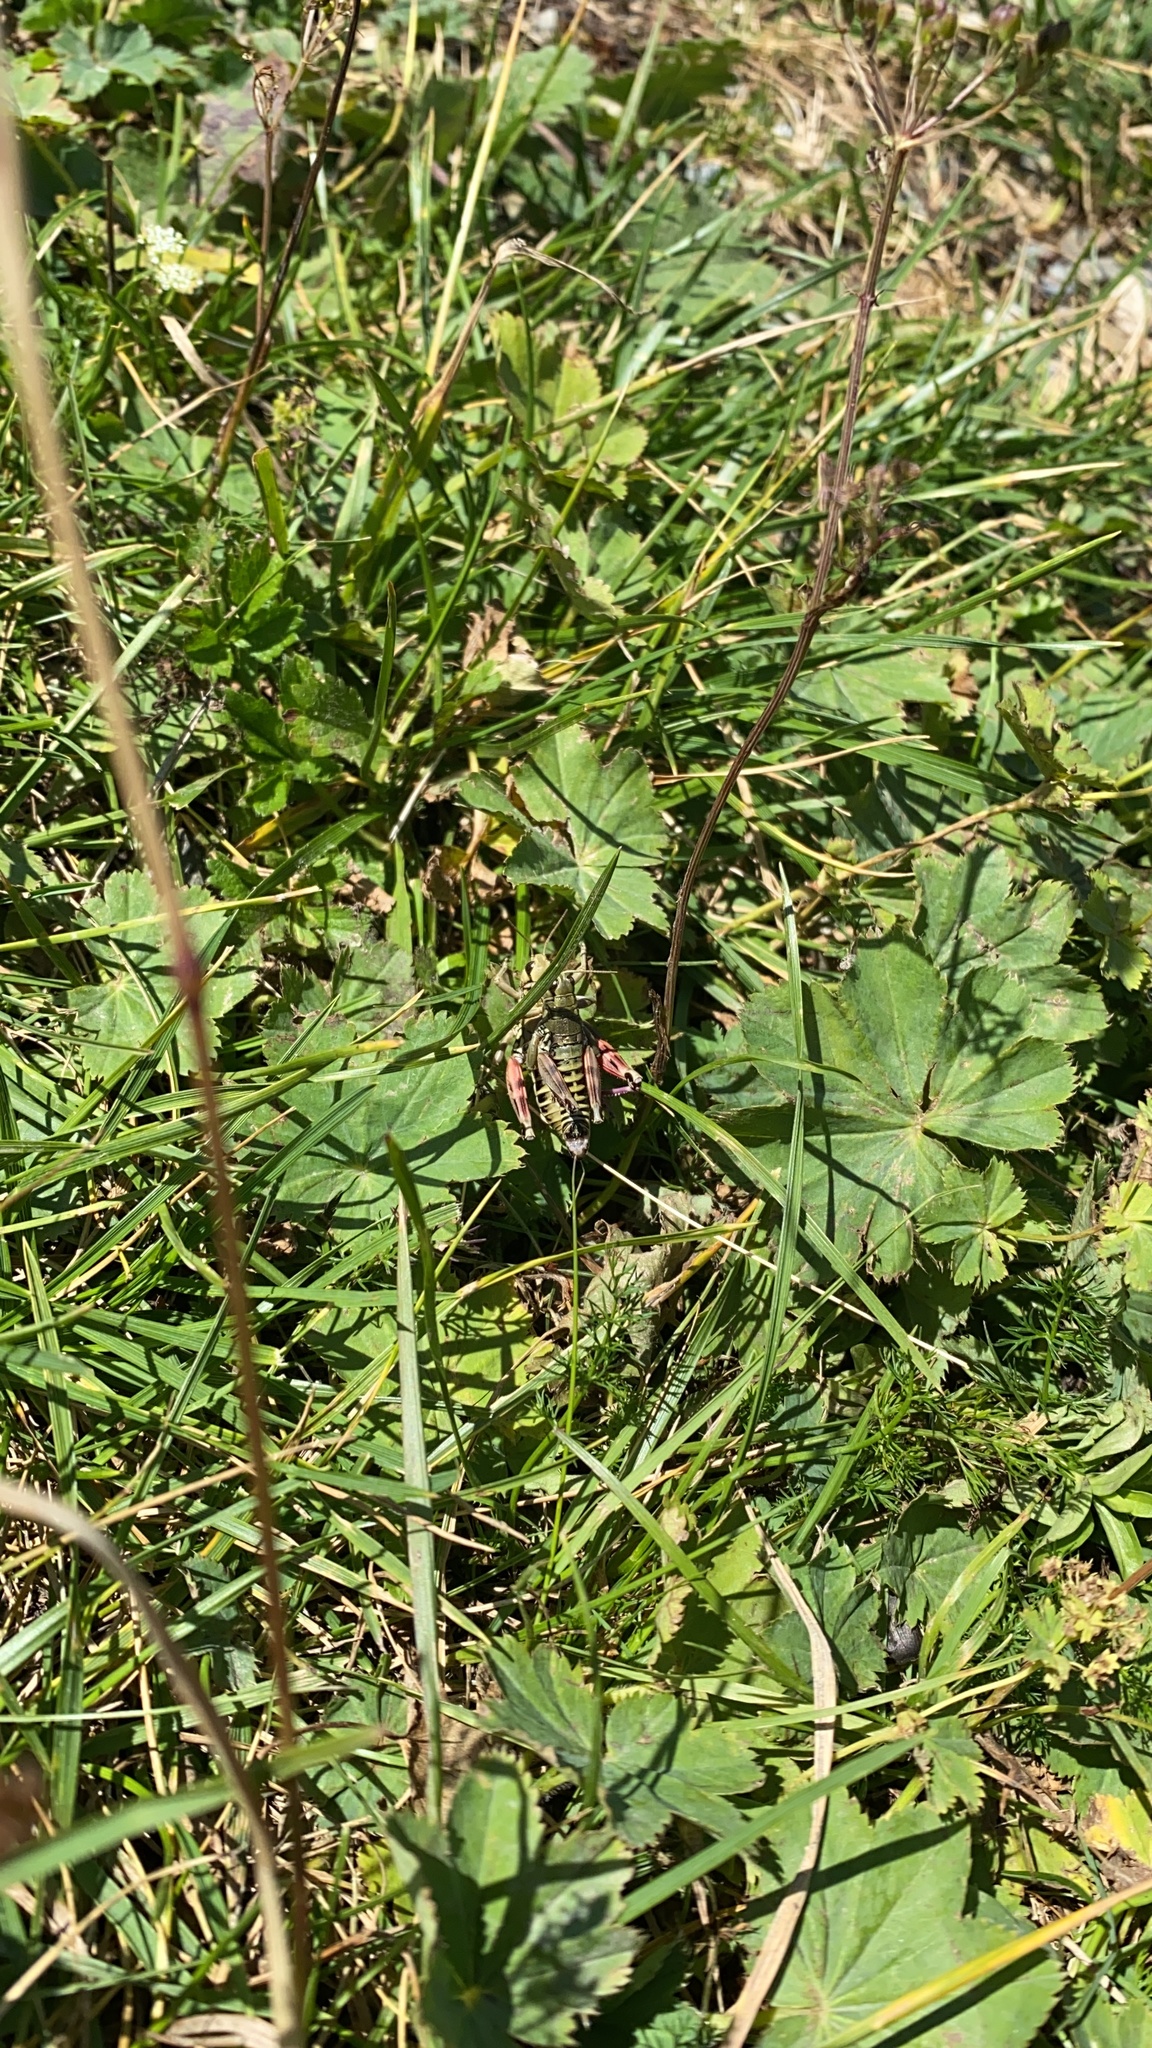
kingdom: Animalia
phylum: Arthropoda
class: Insecta
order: Orthoptera
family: Acrididae
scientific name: Acrididae
